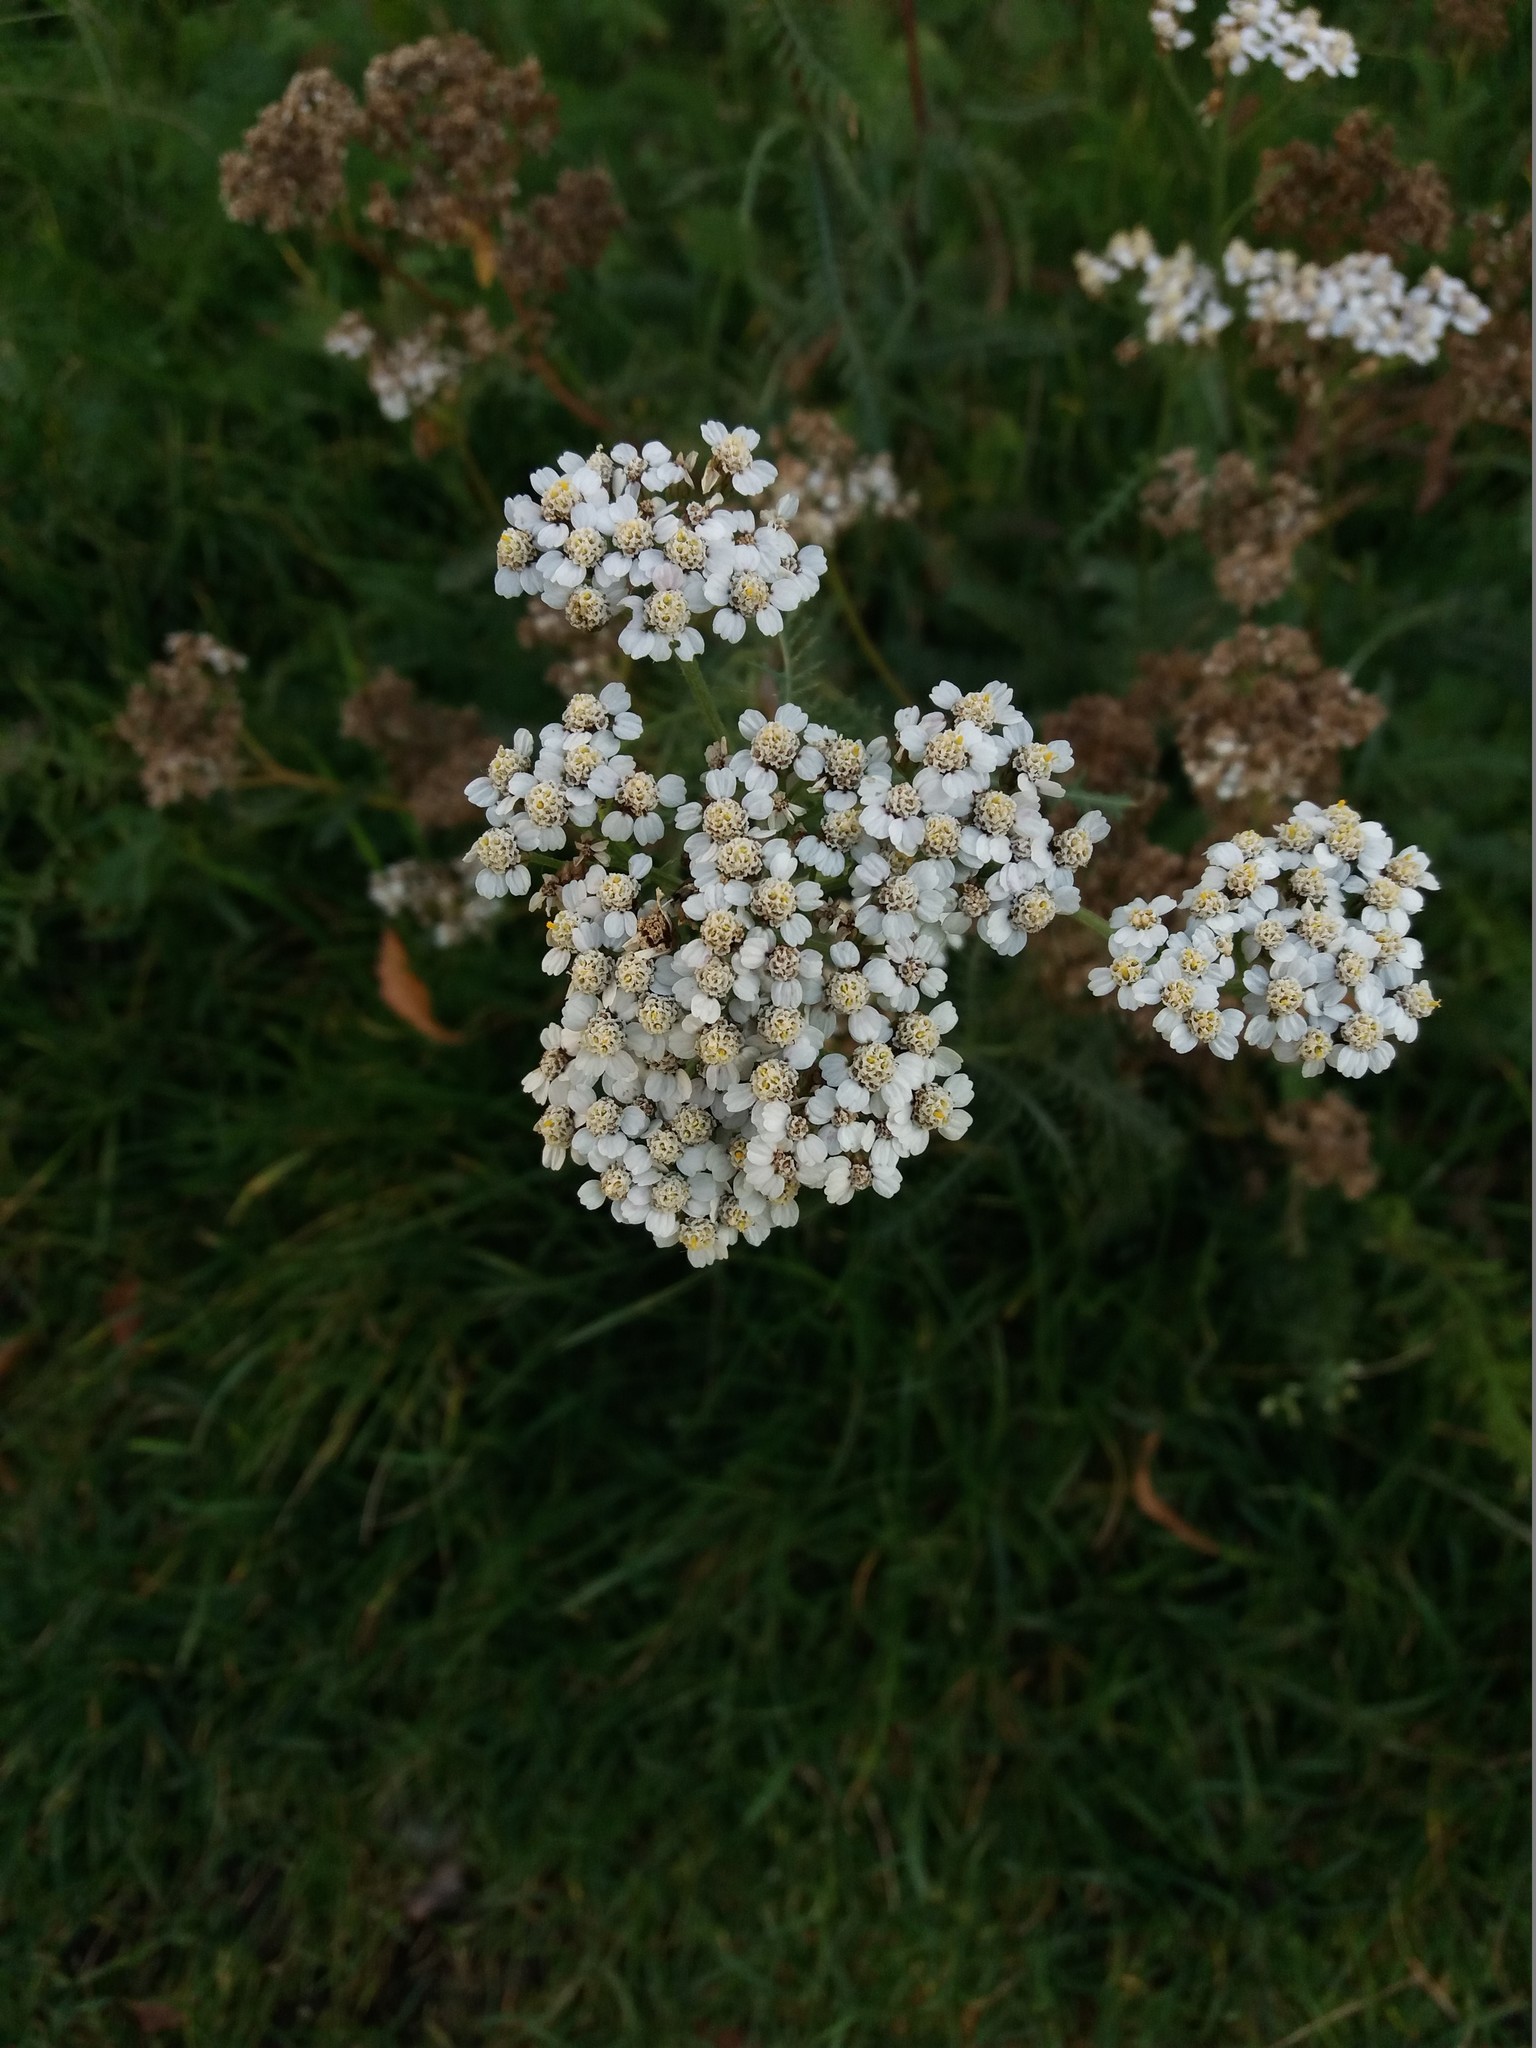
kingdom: Plantae
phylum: Tracheophyta
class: Magnoliopsida
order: Asterales
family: Asteraceae
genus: Achillea
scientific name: Achillea millefolium
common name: Yarrow
